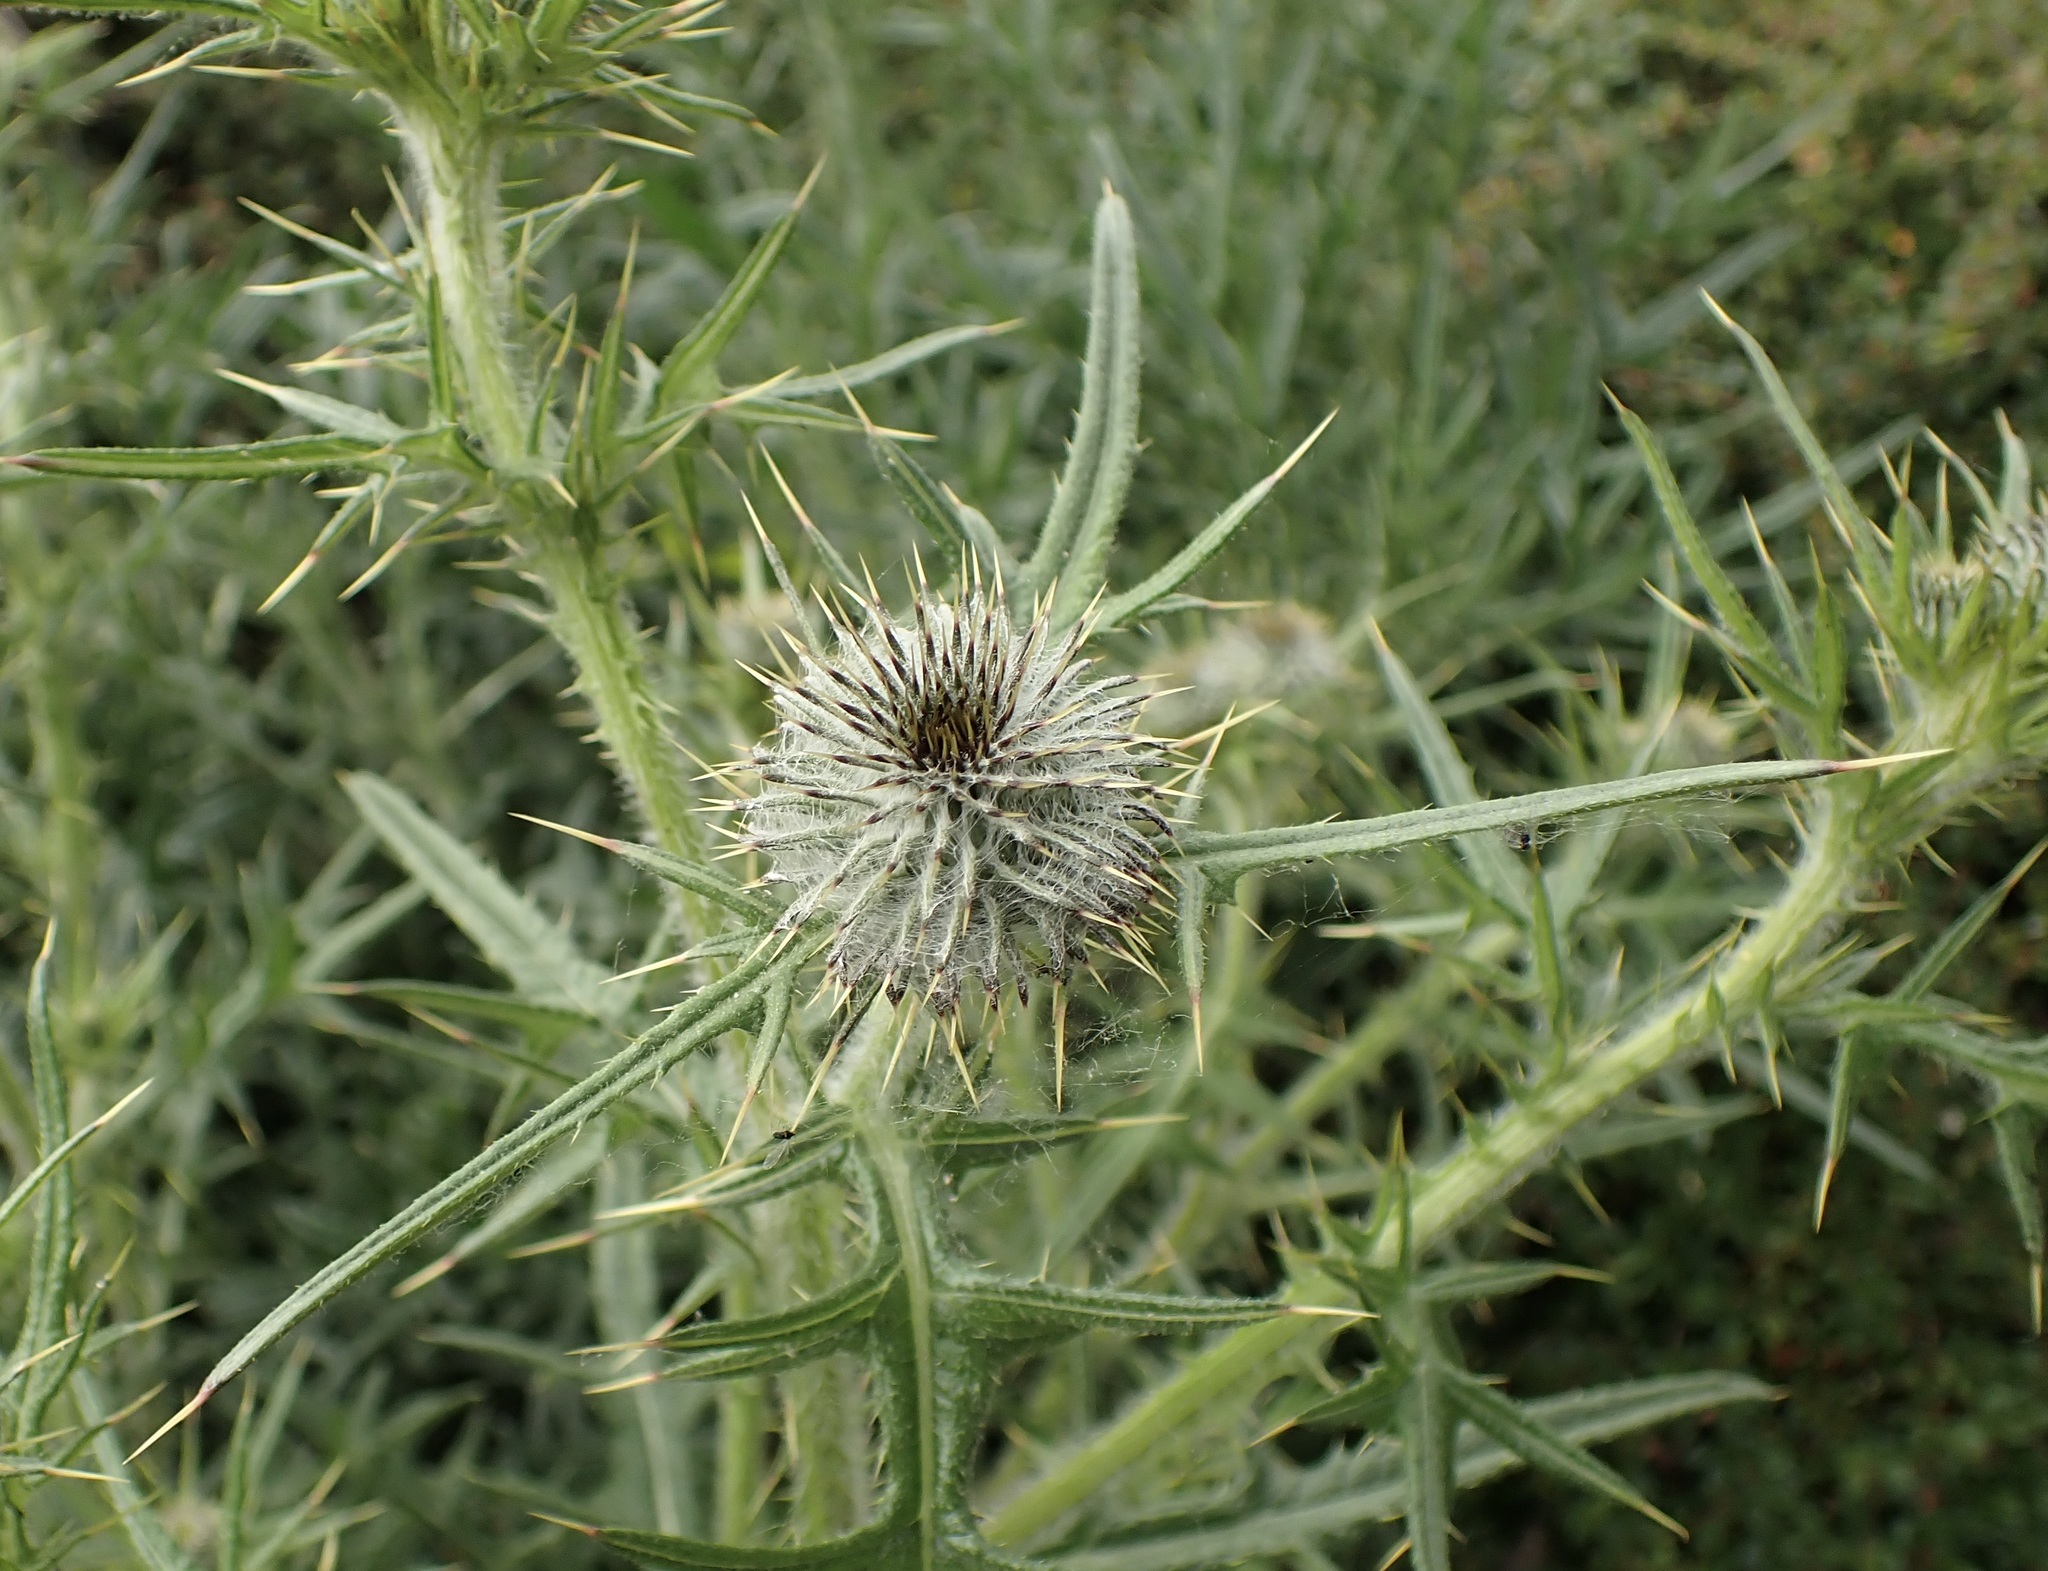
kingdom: Plantae
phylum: Tracheophyta
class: Magnoliopsida
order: Asterales
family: Asteraceae
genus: Cirsium
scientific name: Cirsium vulgare
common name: Bull thistle
